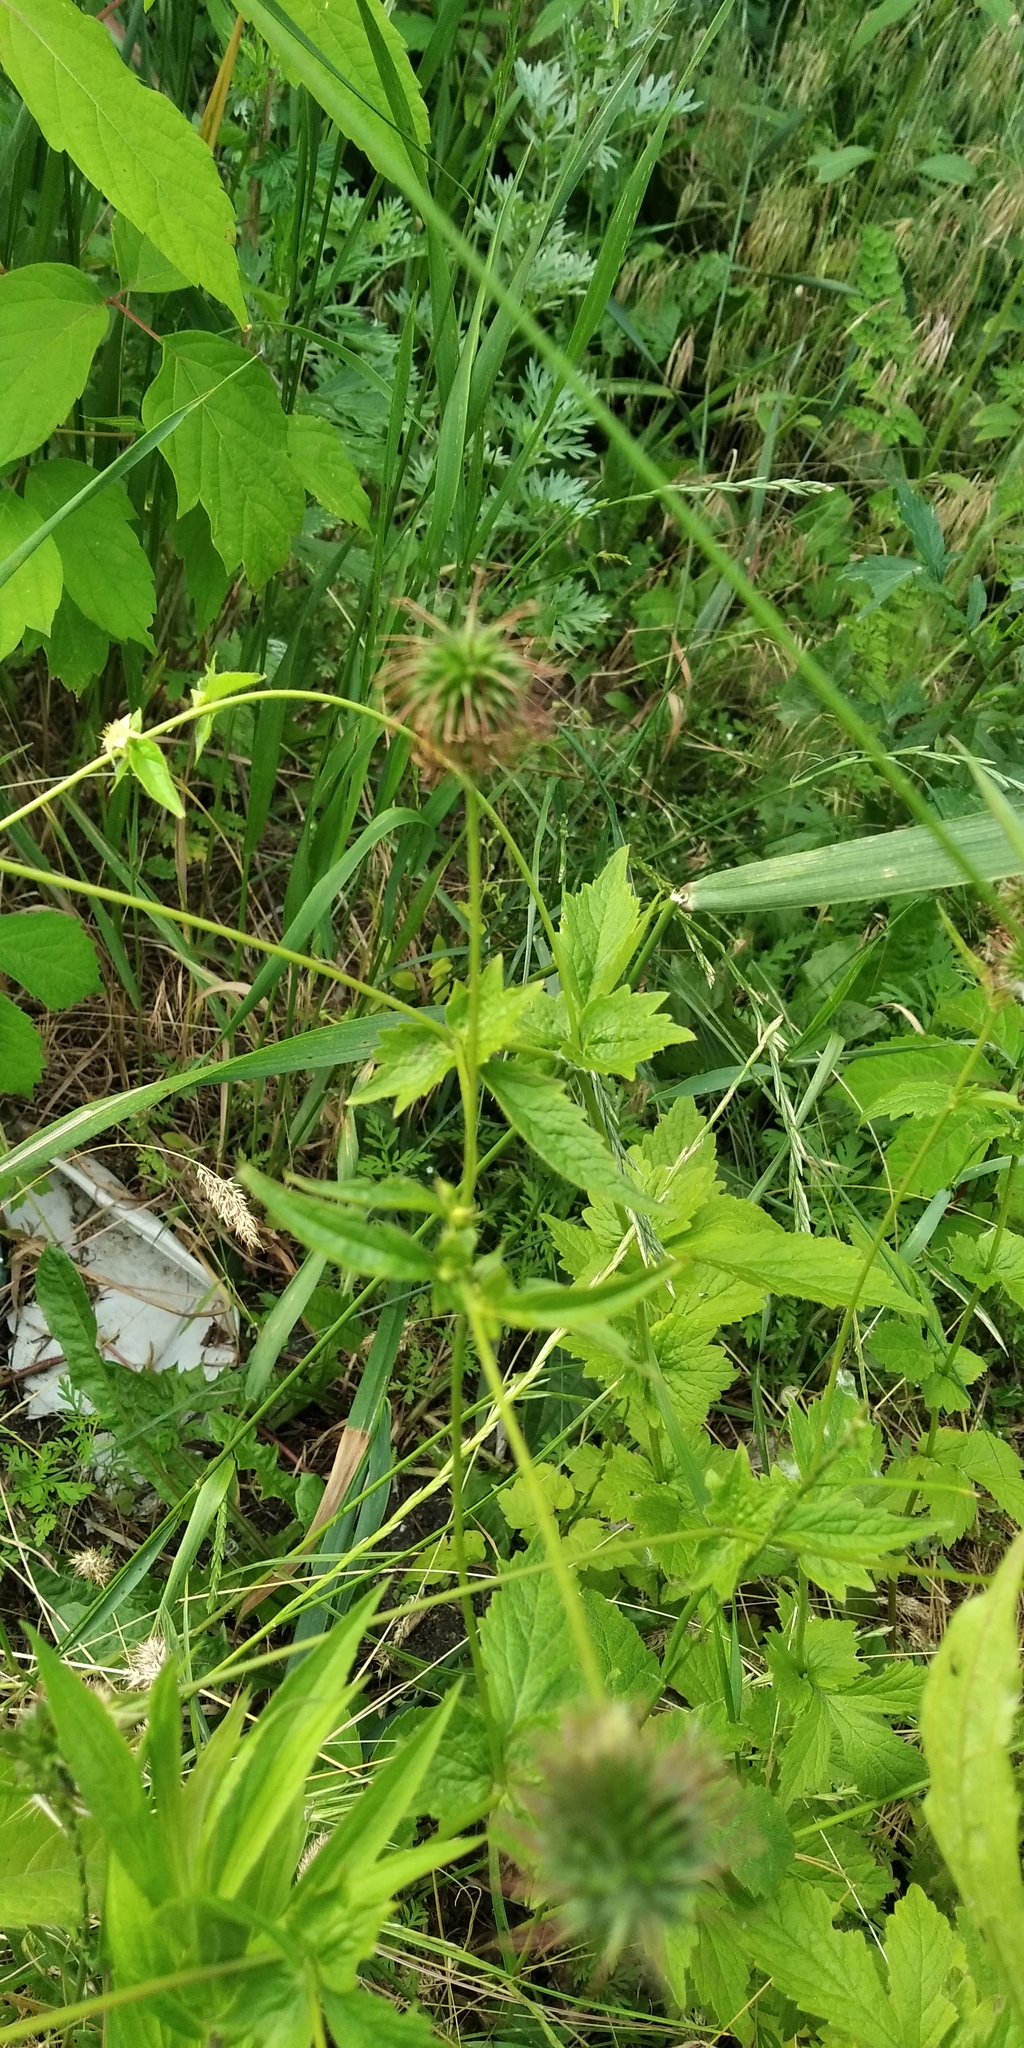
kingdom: Plantae
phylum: Tracheophyta
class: Magnoliopsida
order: Rosales
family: Rosaceae
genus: Geum
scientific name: Geum urbanum
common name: Wood avens
